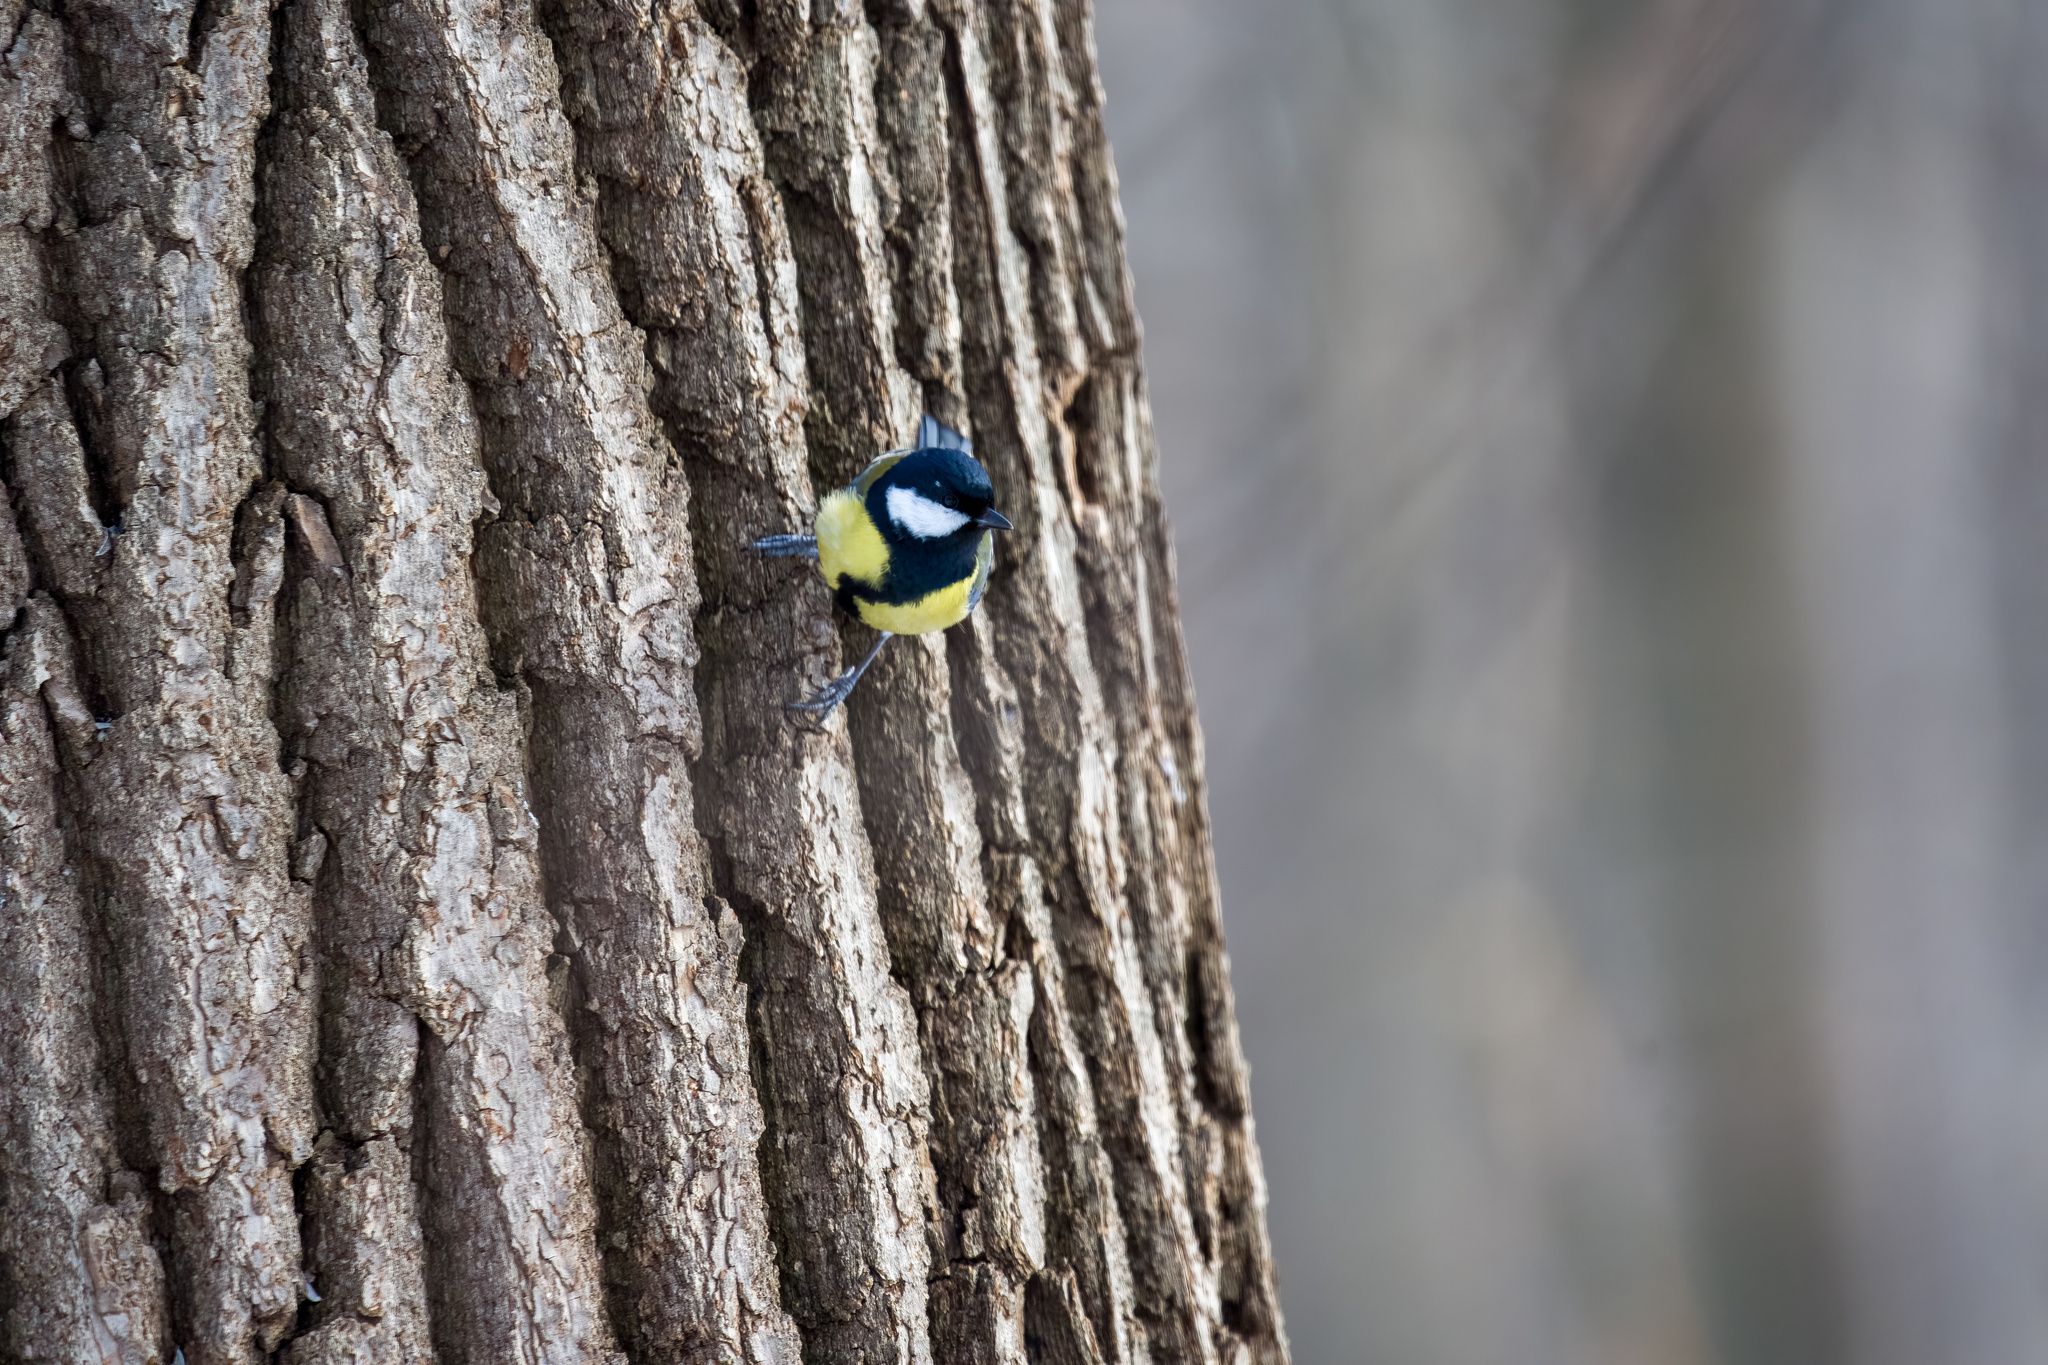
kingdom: Animalia
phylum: Chordata
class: Aves
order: Passeriformes
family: Paridae
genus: Parus
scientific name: Parus major
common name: Great tit
